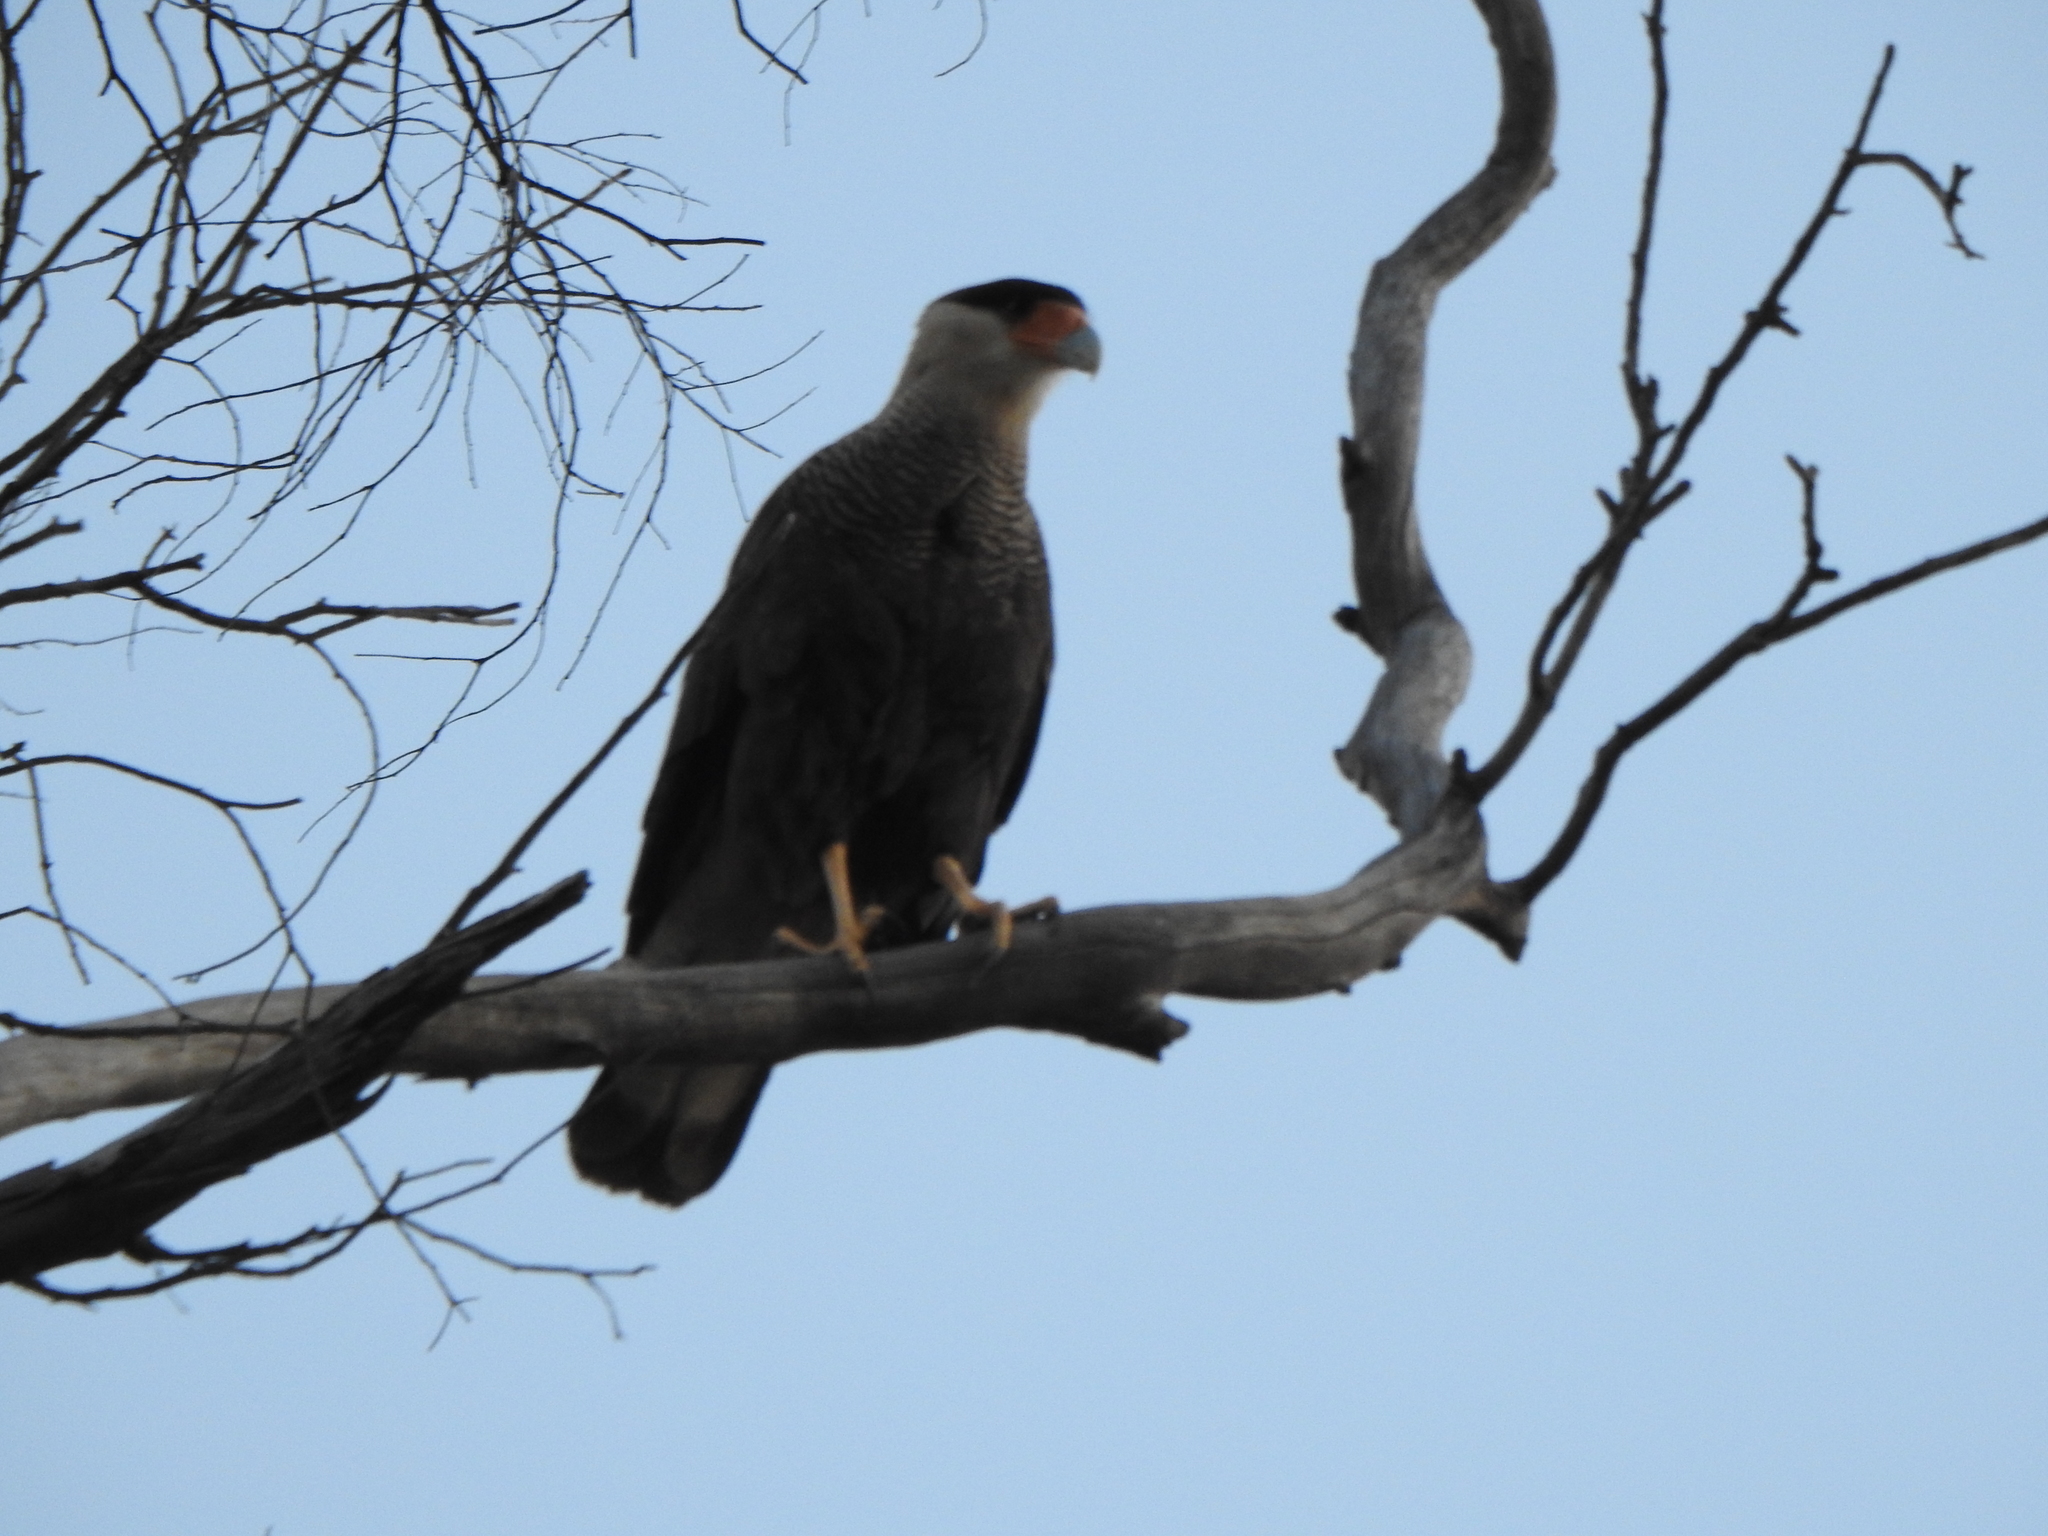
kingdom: Animalia
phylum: Chordata
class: Aves
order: Falconiformes
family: Falconidae
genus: Caracara
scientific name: Caracara plancus
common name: Southern caracara
